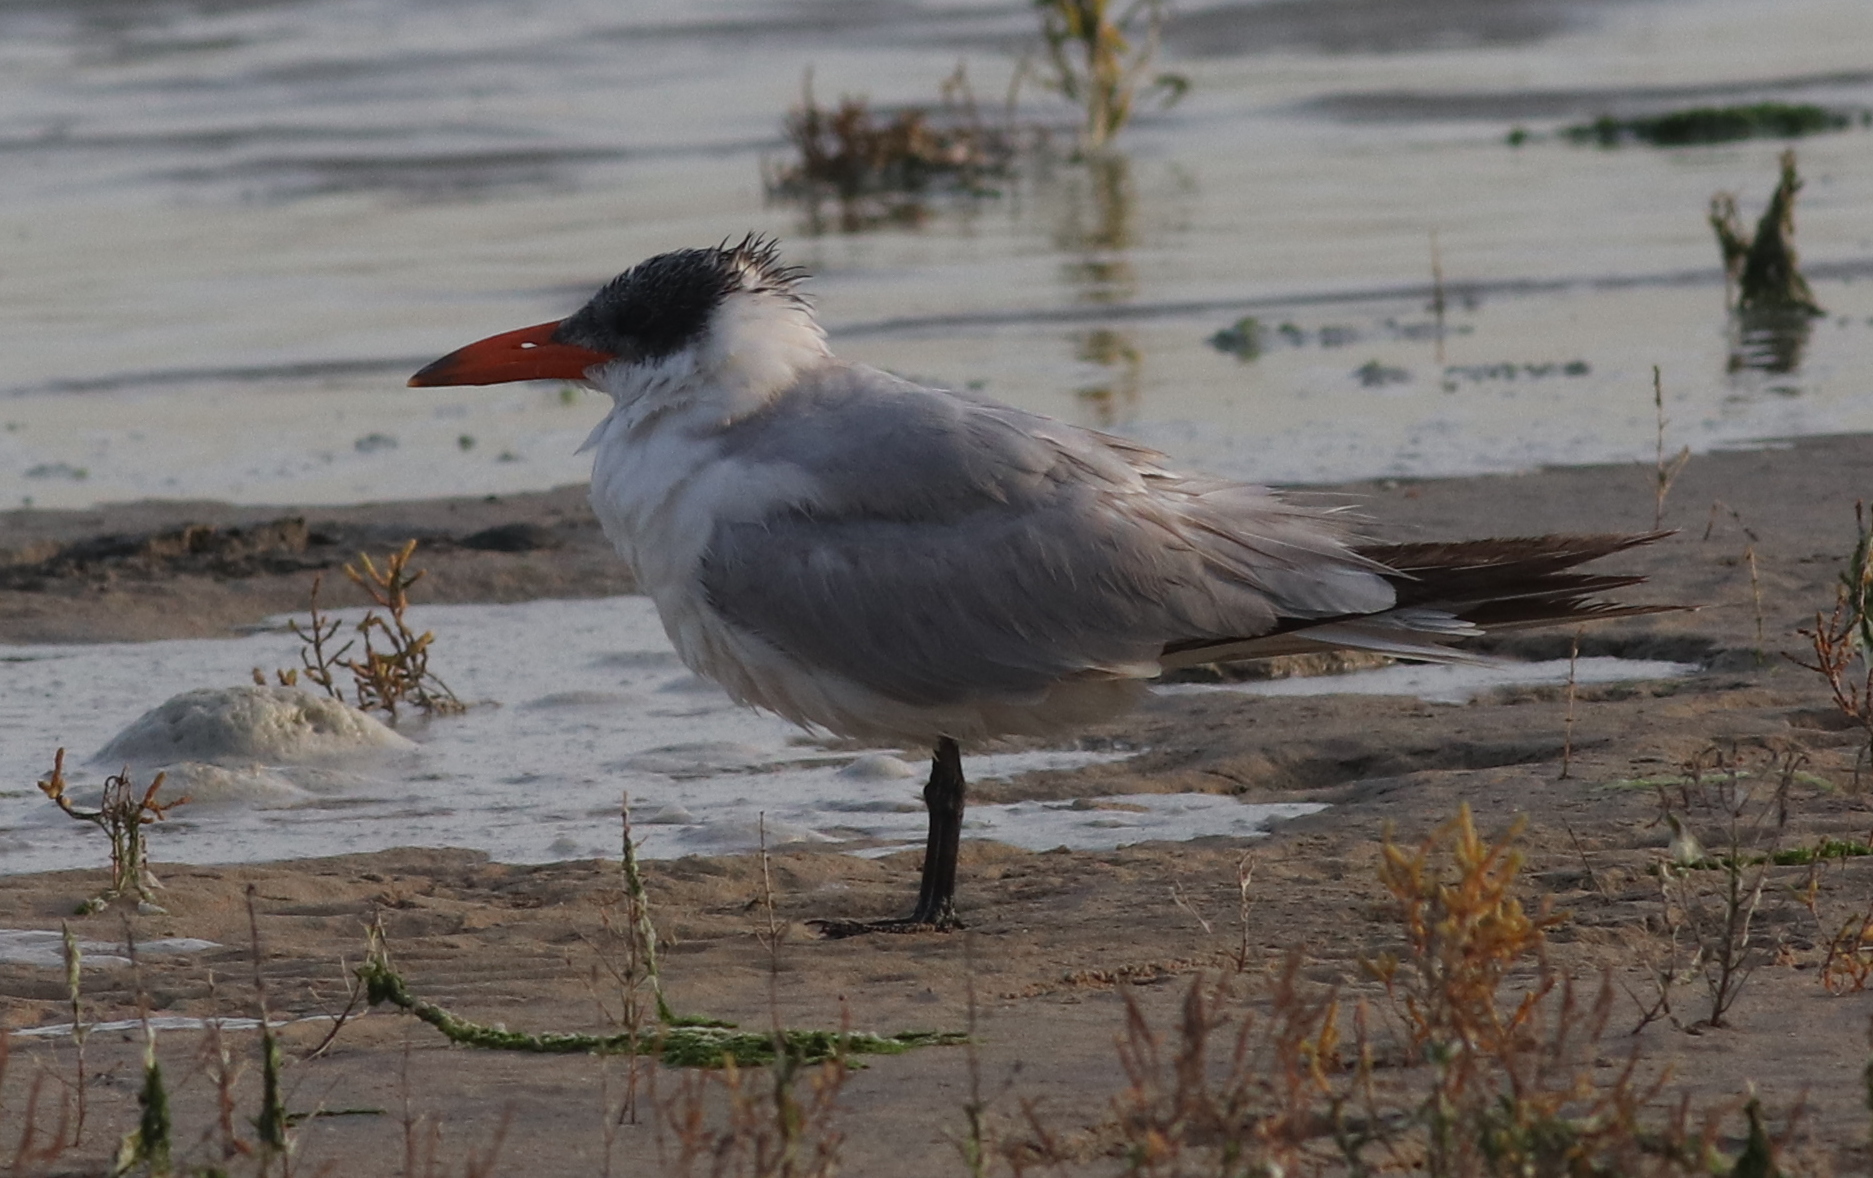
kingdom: Animalia
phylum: Chordata
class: Aves
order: Charadriiformes
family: Laridae
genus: Hydroprogne
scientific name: Hydroprogne caspia
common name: Caspian tern
